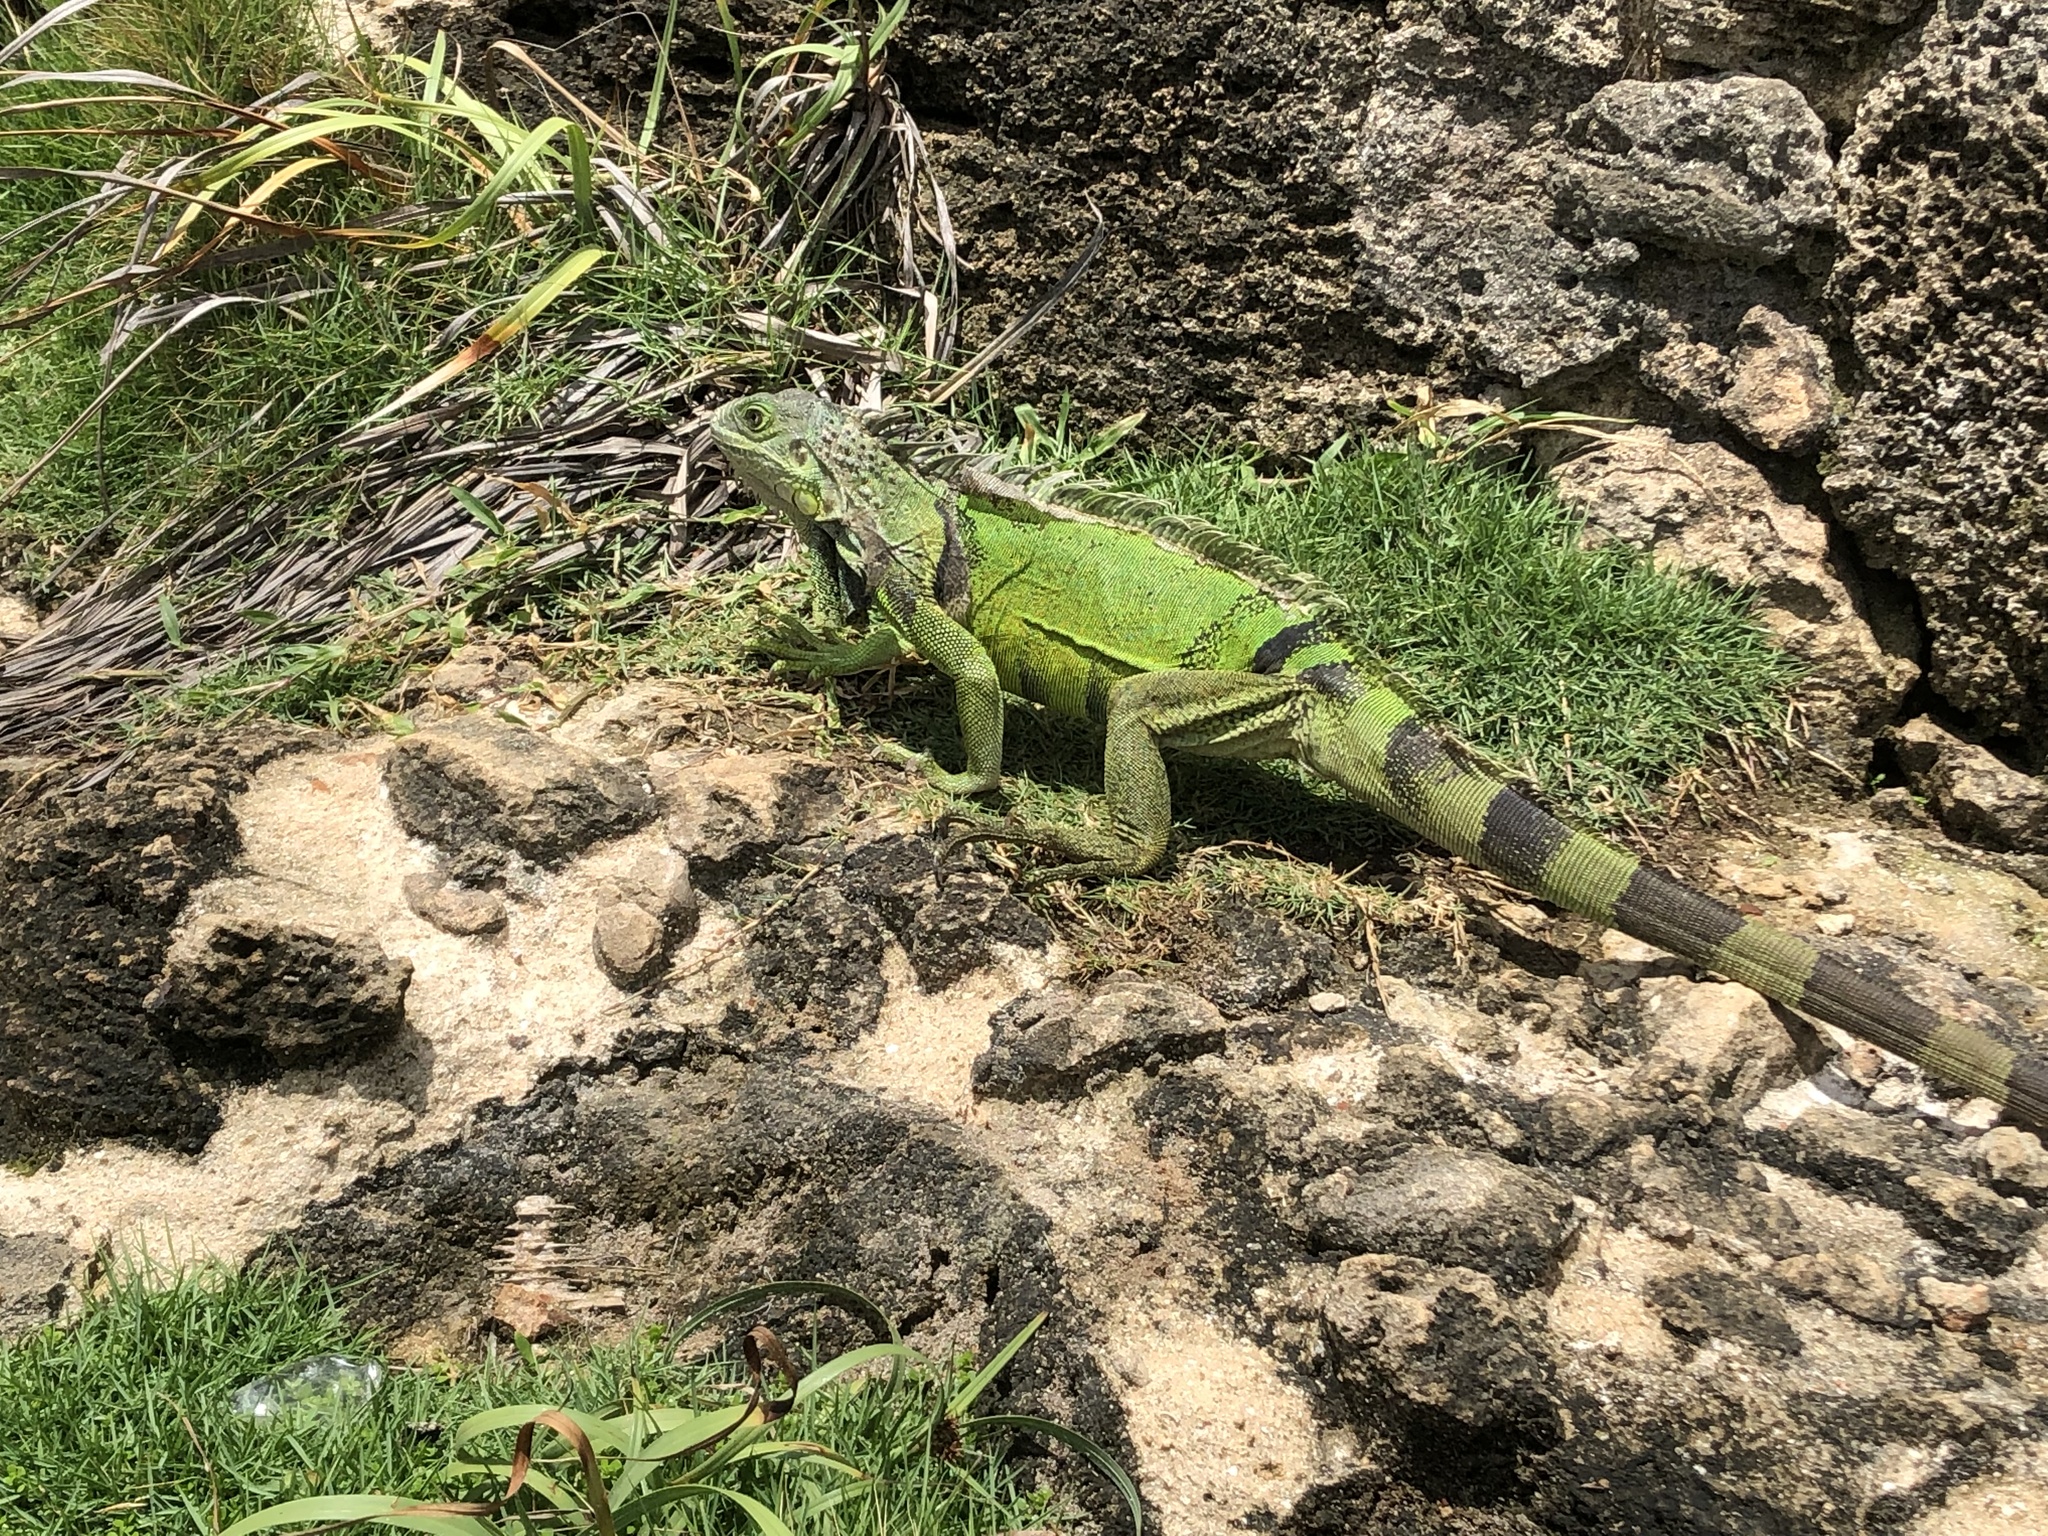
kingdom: Animalia
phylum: Chordata
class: Squamata
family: Iguanidae
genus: Iguana
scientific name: Iguana iguana
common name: Green iguana
